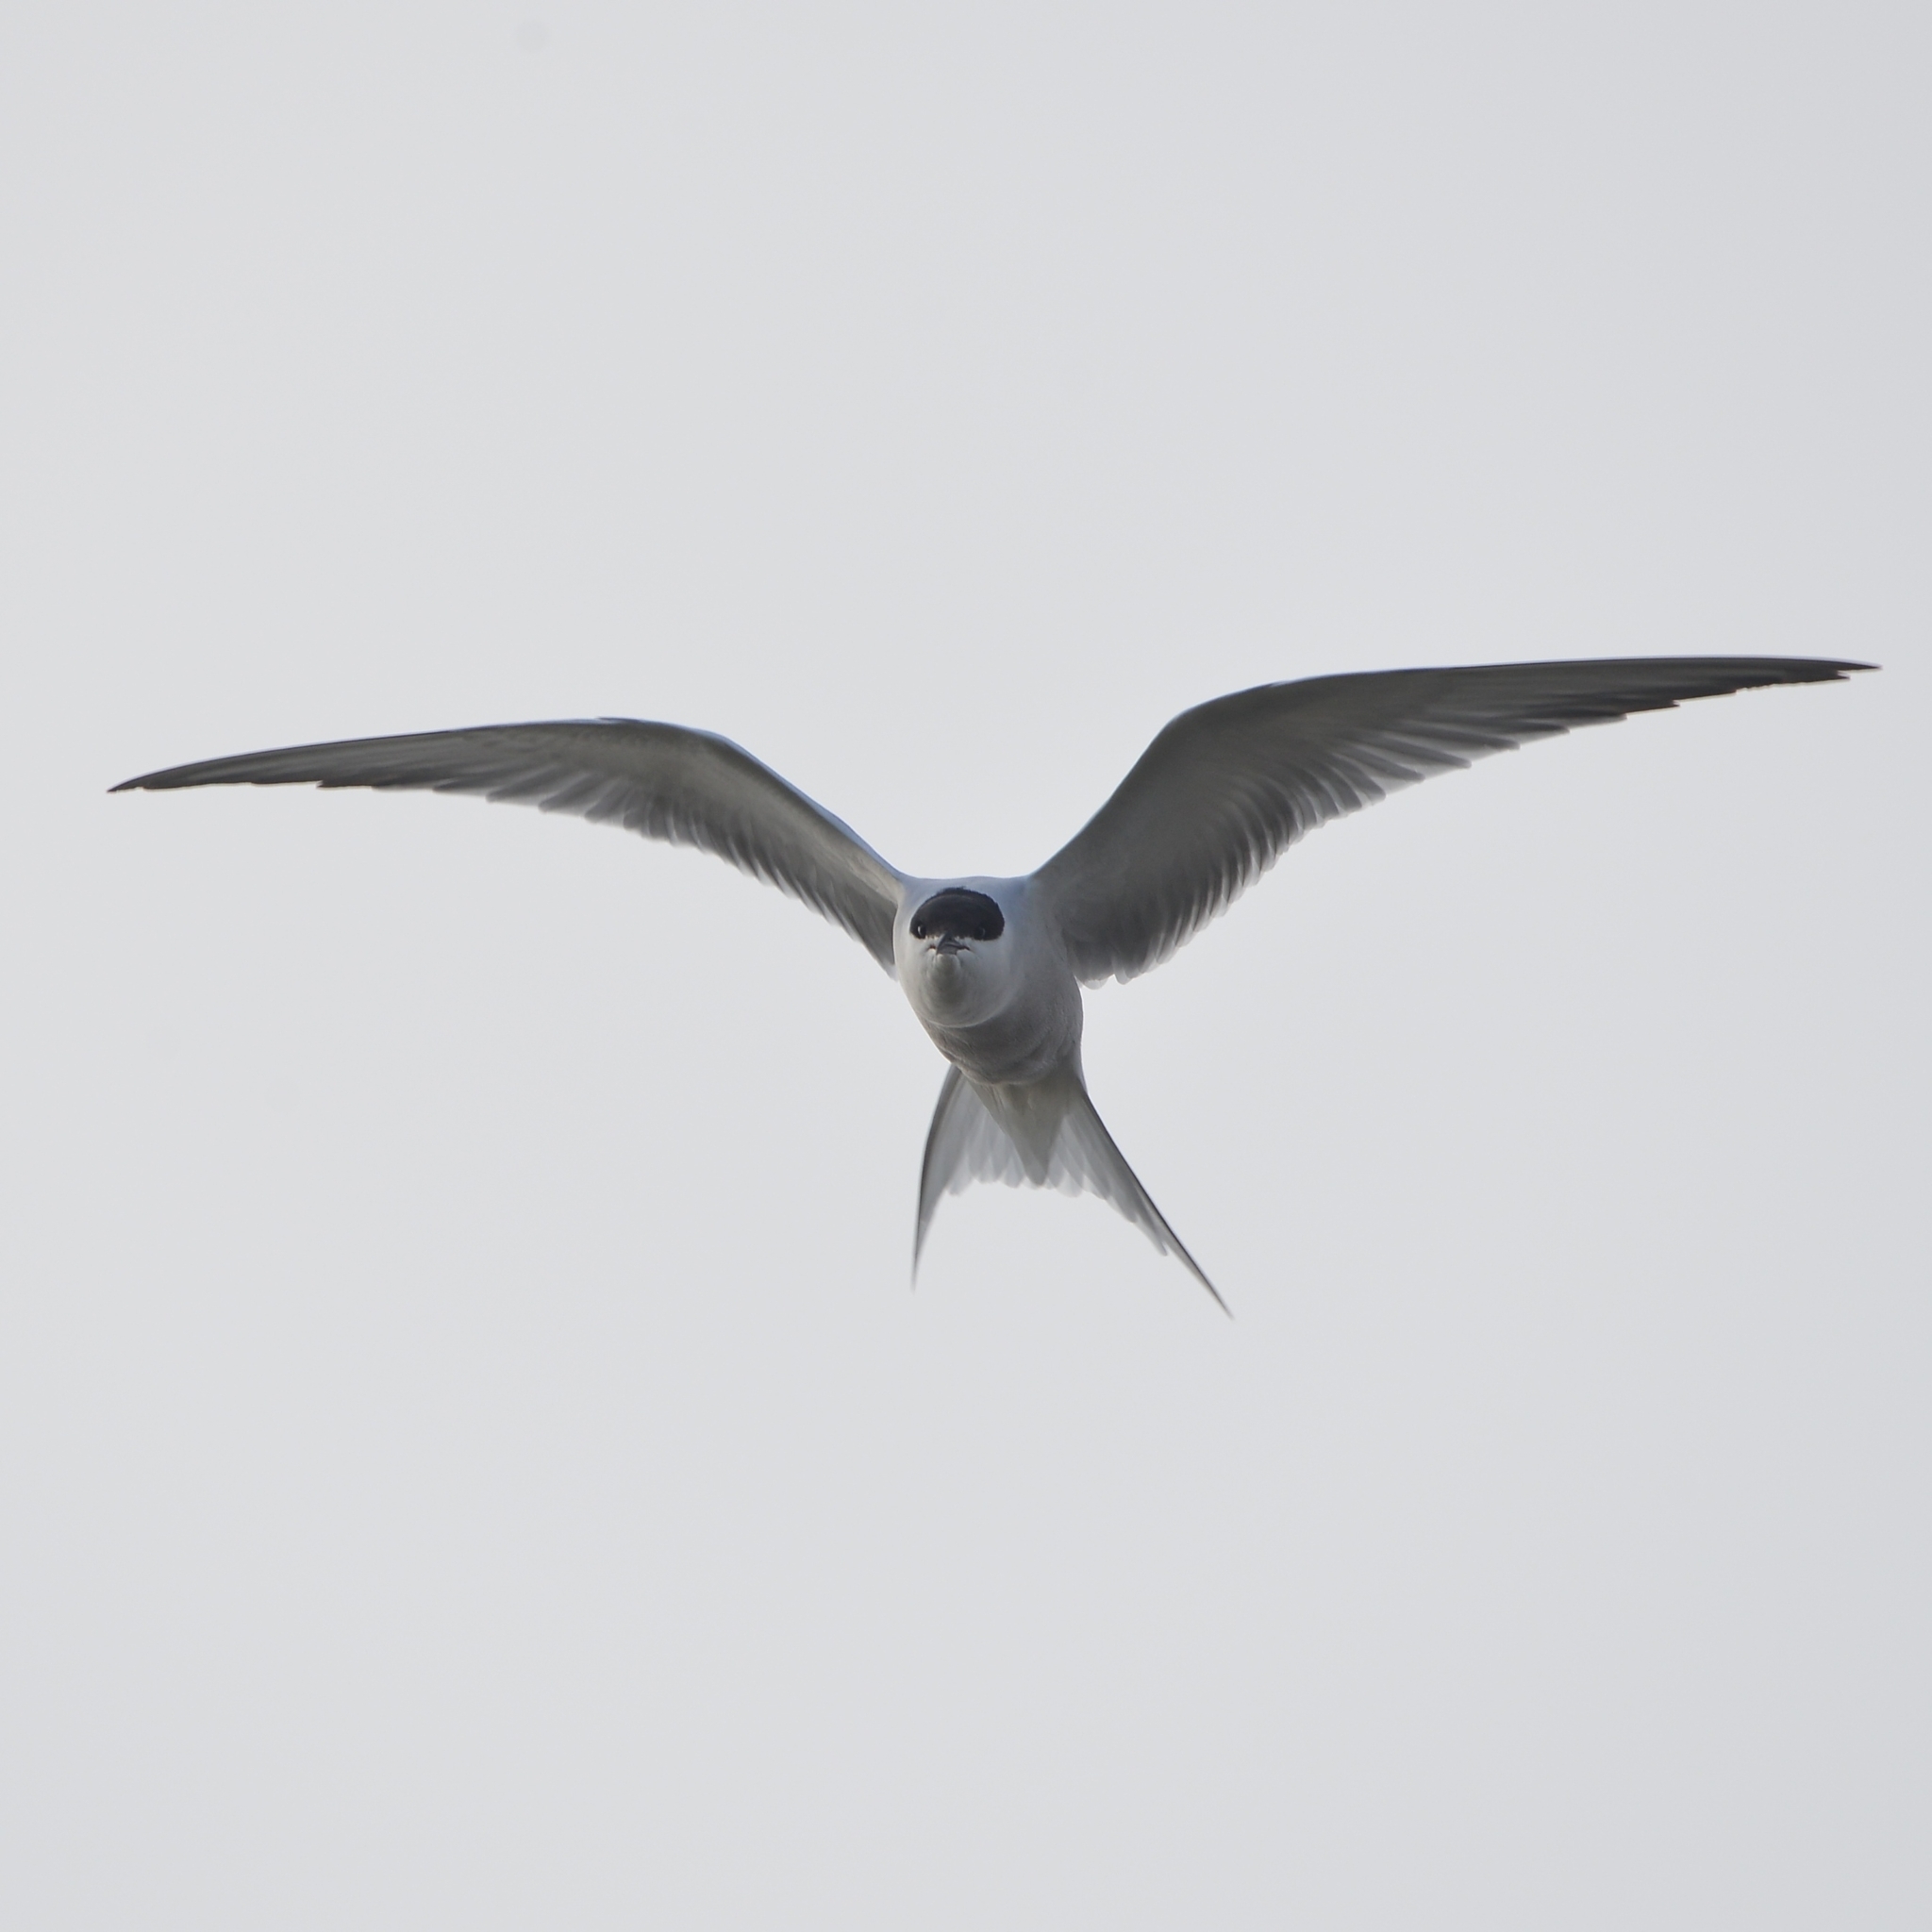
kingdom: Animalia
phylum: Chordata
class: Aves
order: Charadriiformes
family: Laridae
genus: Sterna
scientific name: Sterna hirundo
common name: Common tern
